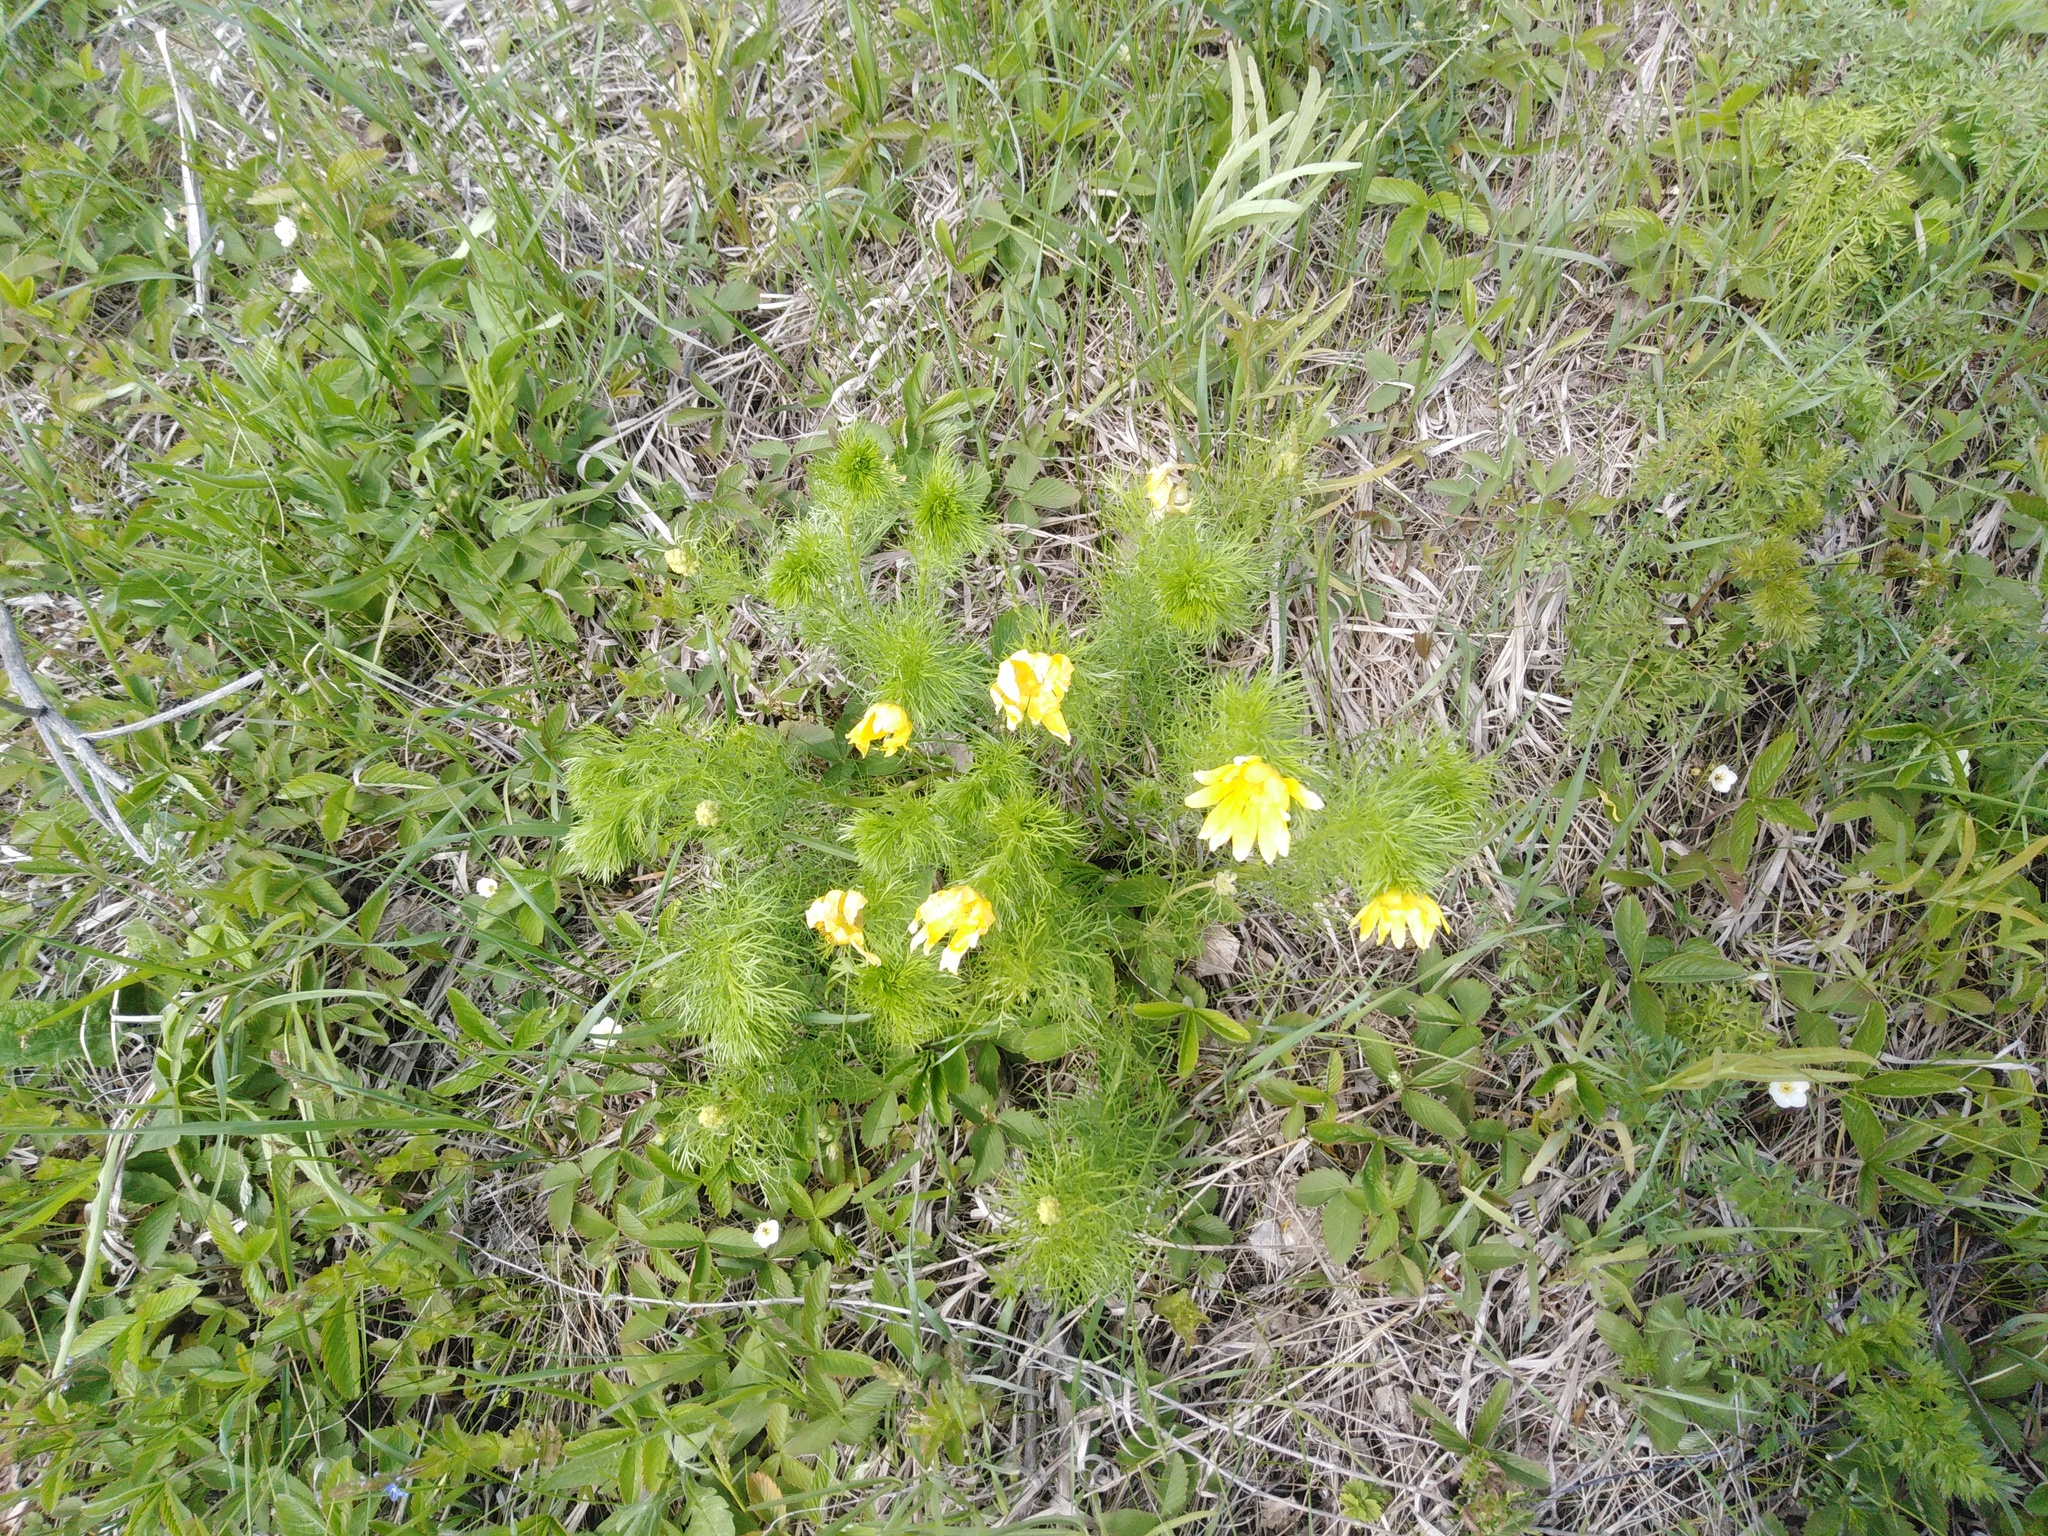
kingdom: Plantae
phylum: Tracheophyta
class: Magnoliopsida
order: Ranunculales
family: Ranunculaceae
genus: Adonis
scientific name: Adonis vernalis
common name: Yellow pheasants-eye
